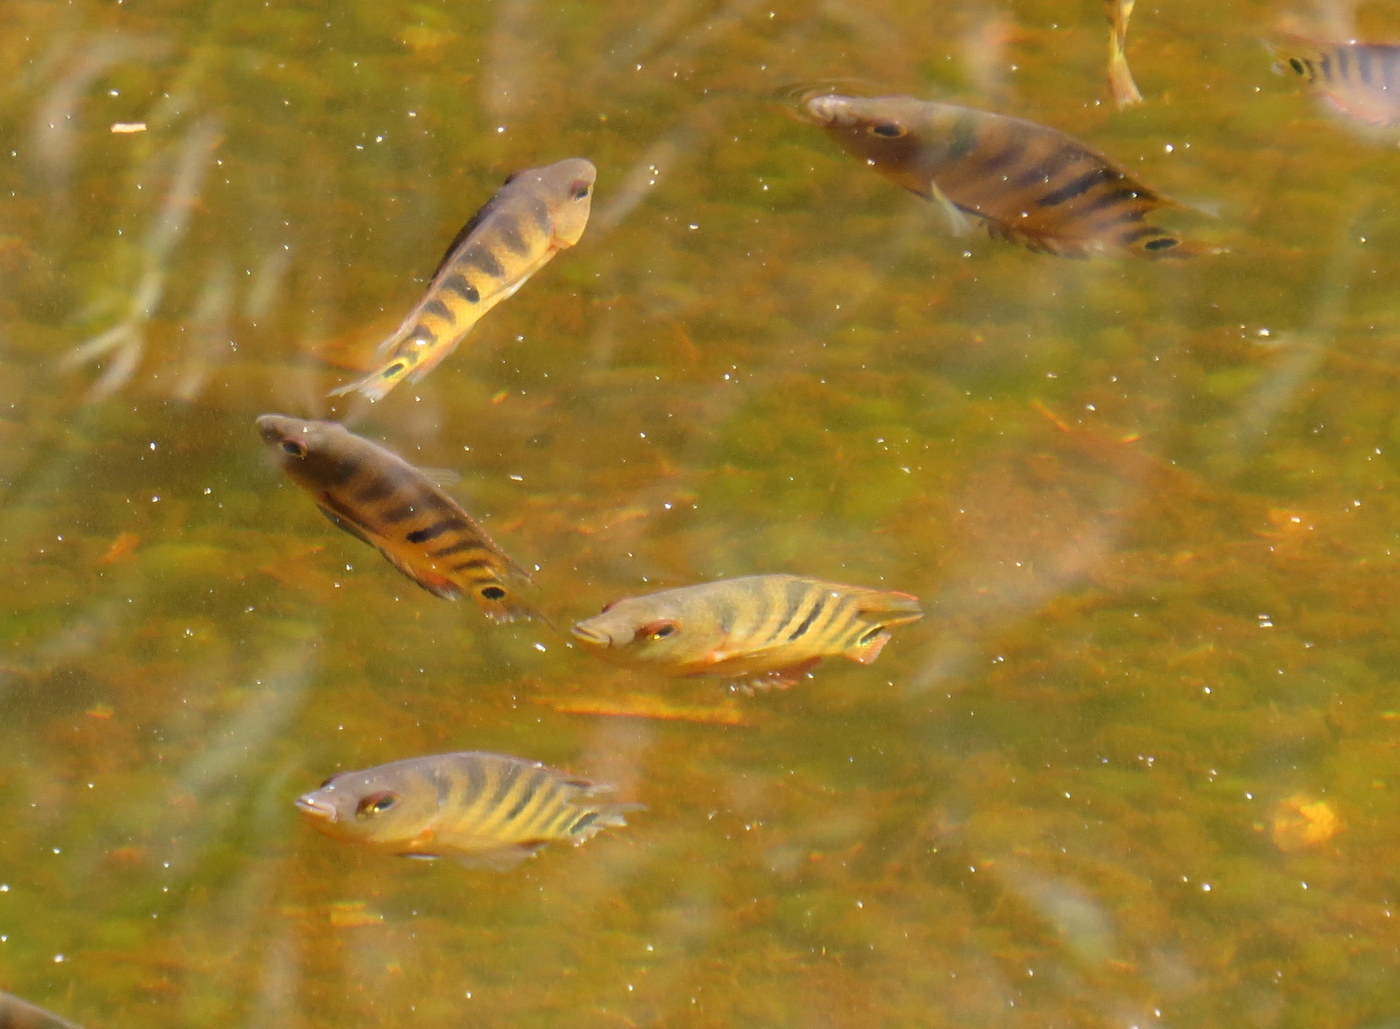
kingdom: Animalia
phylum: Chordata
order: Perciformes
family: Cichlidae
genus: Mayaheros
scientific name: Mayaheros urophthalmus
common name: Mayan cichlid
